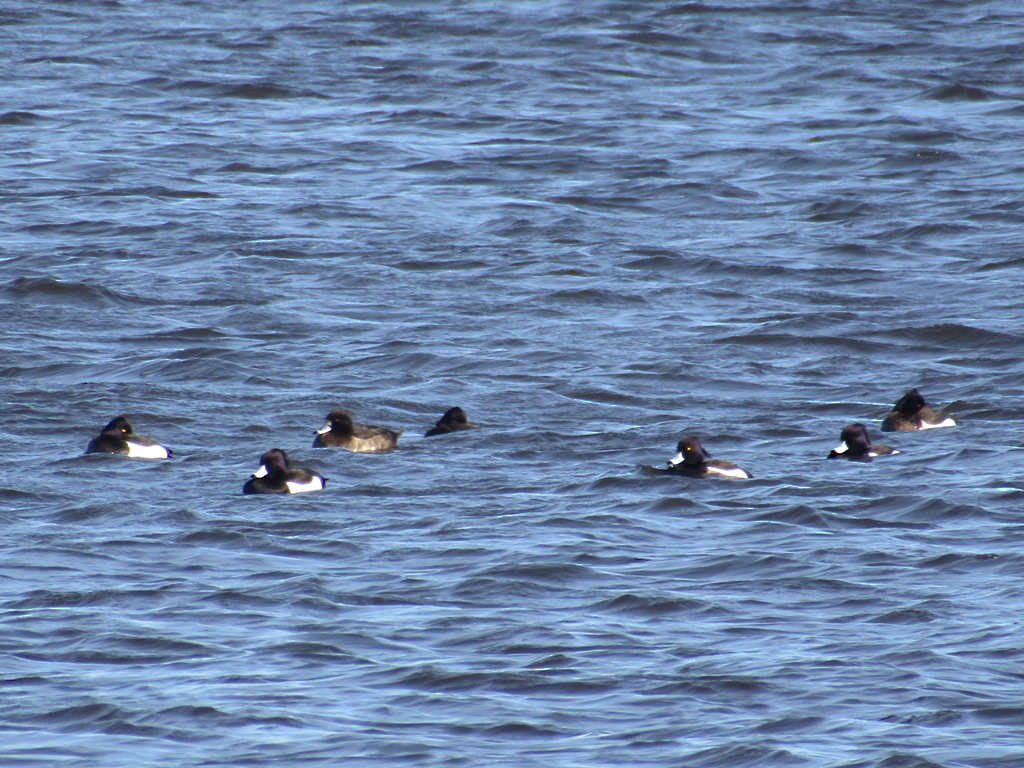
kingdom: Animalia
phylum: Chordata
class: Aves
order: Anseriformes
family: Anatidae
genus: Aythya
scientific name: Aythya fuligula
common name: Tufted duck
